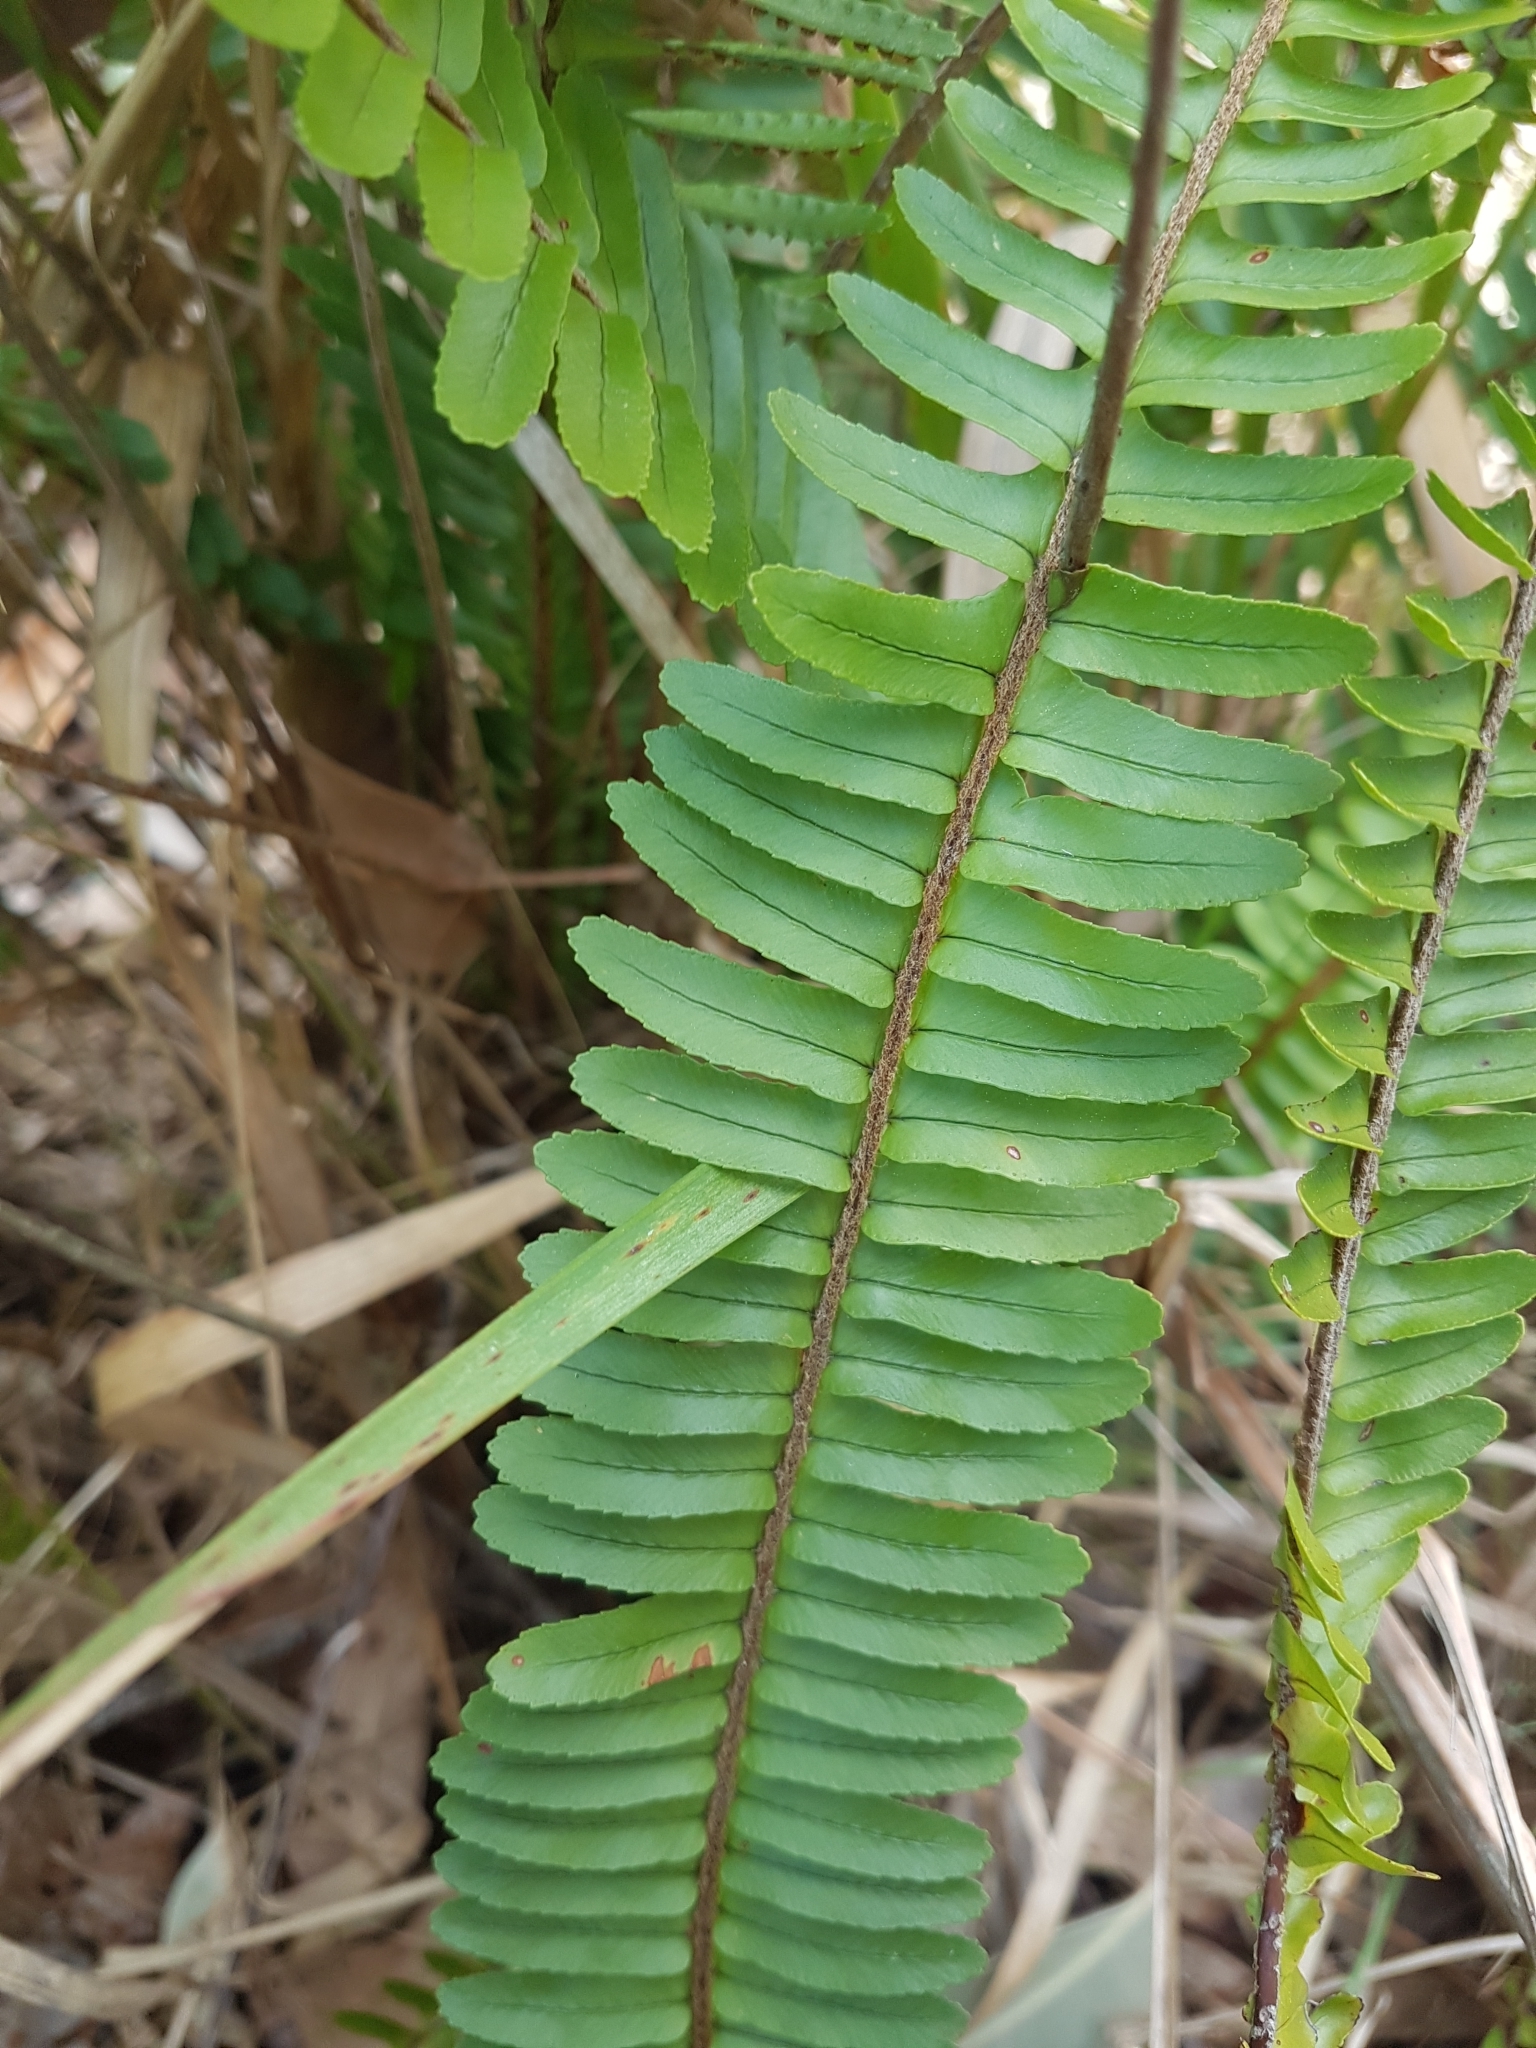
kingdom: Plantae
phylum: Tracheophyta
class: Polypodiopsida
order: Polypodiales
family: Nephrolepidaceae
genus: Nephrolepis
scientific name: Nephrolepis cordifolia
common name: Narrow swordfern
